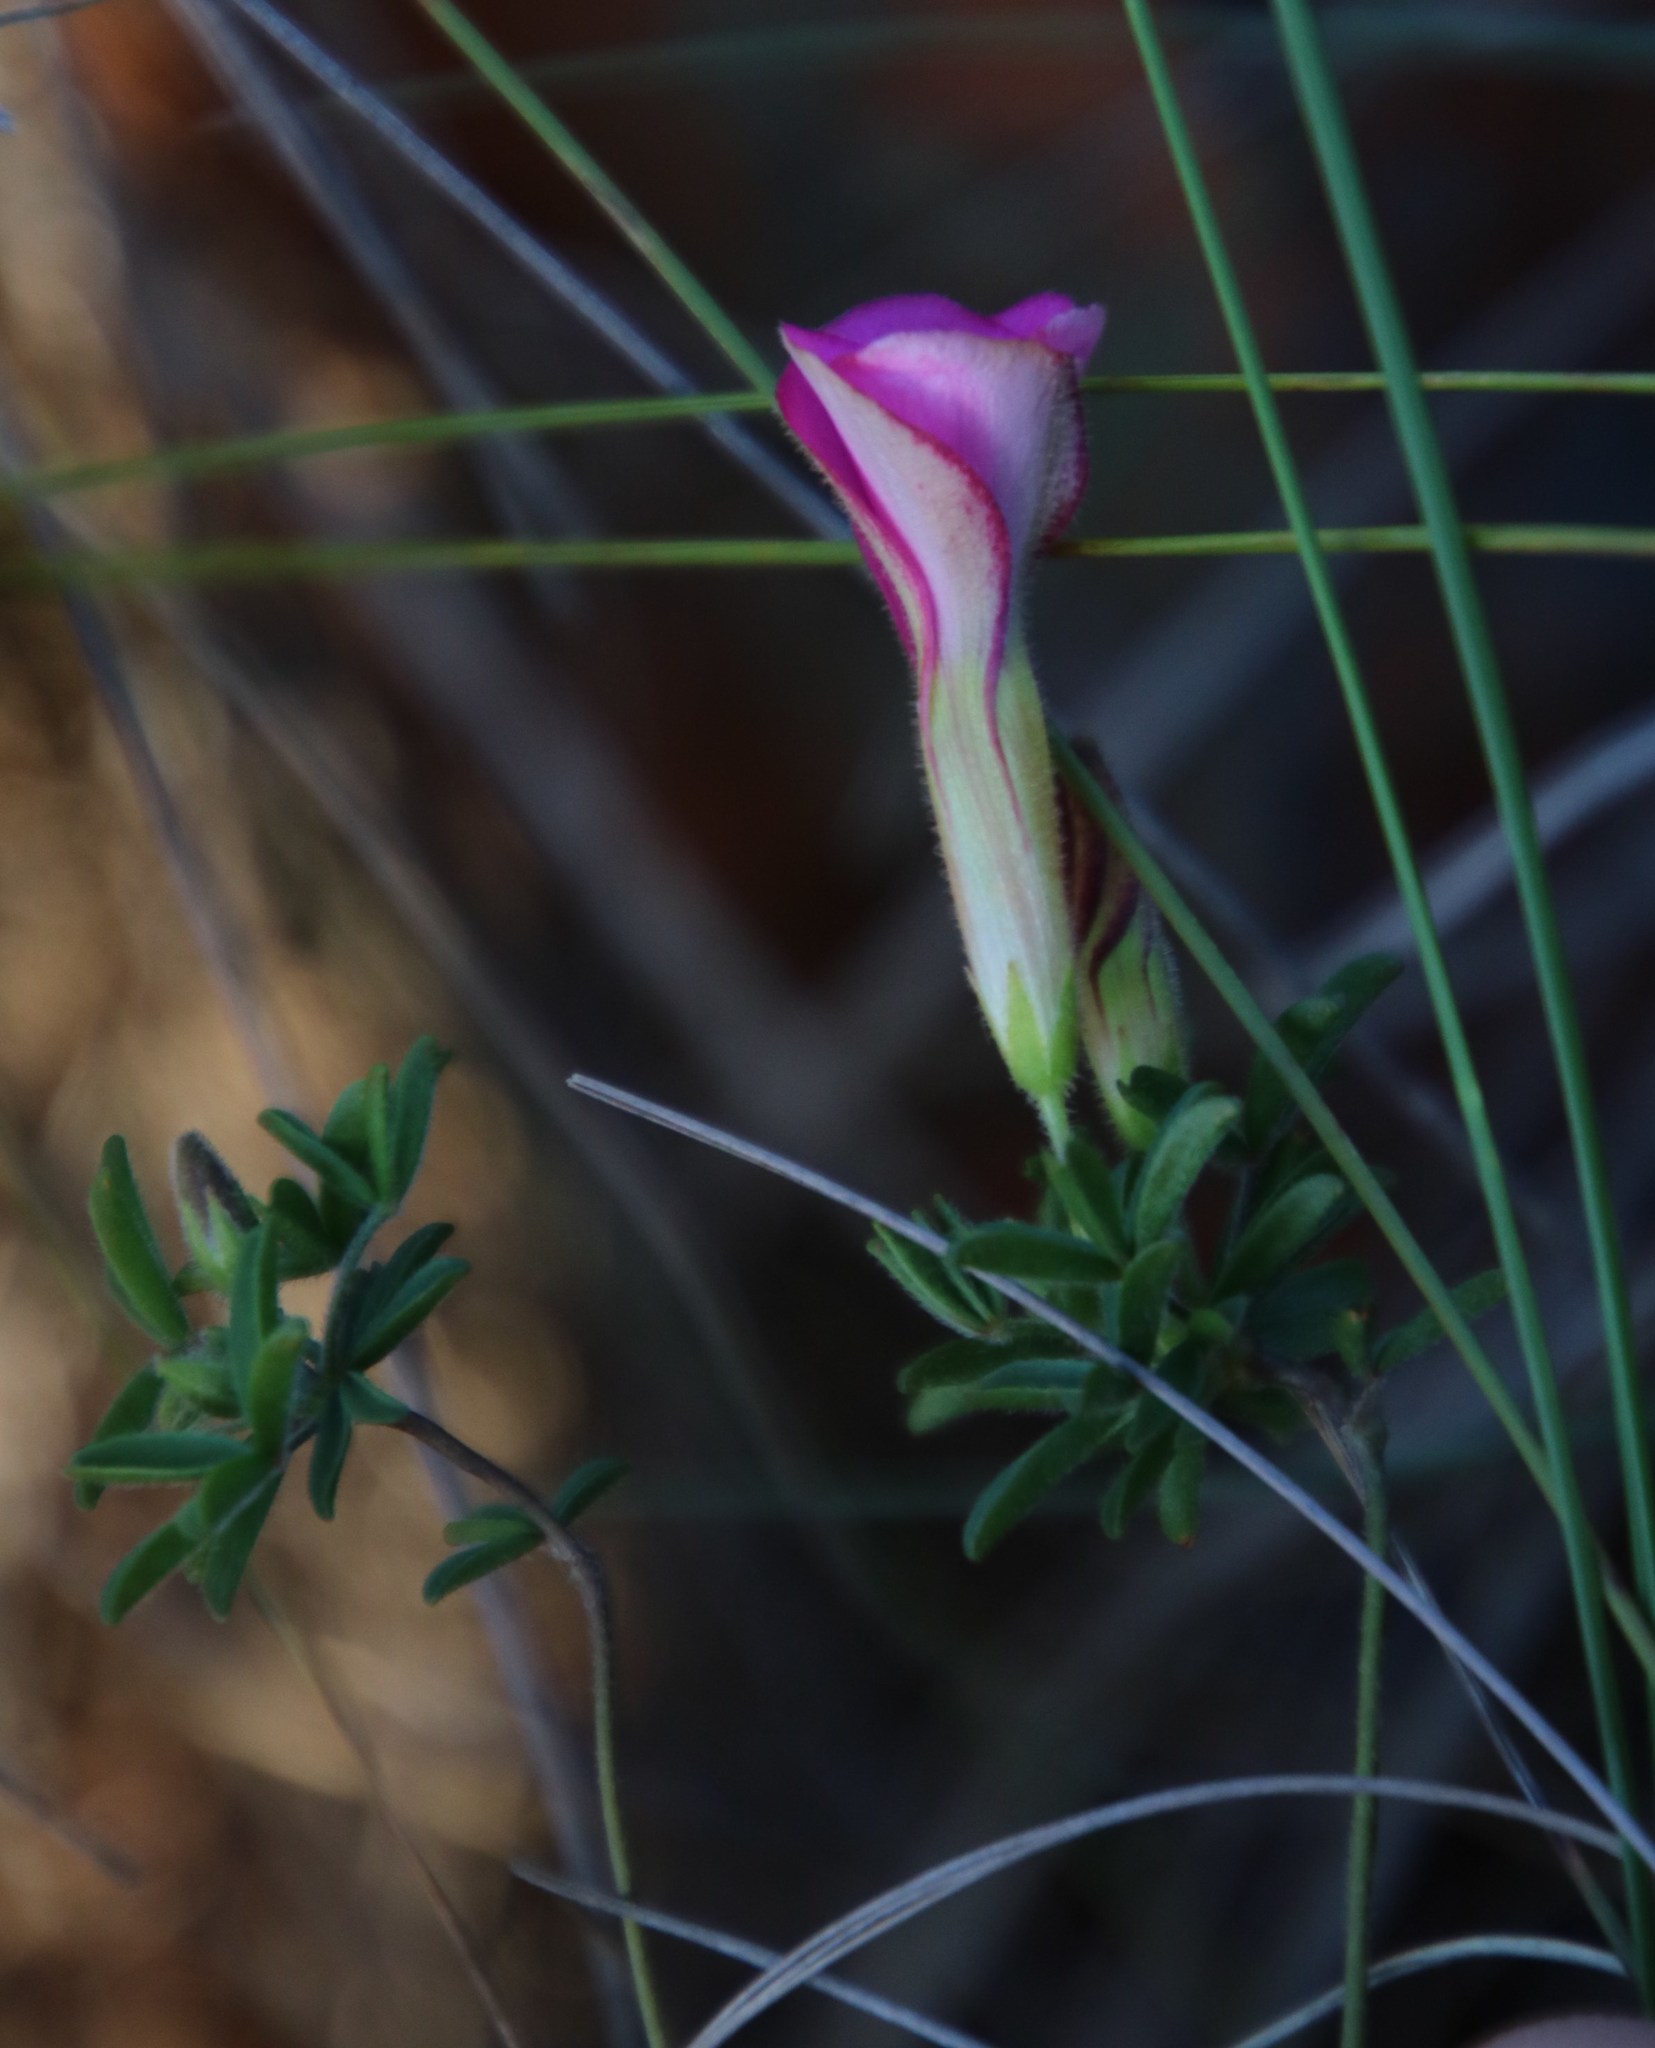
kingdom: Plantae
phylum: Tracheophyta
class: Magnoliopsida
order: Oxalidales
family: Oxalidaceae
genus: Oxalis
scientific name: Oxalis engleriana
